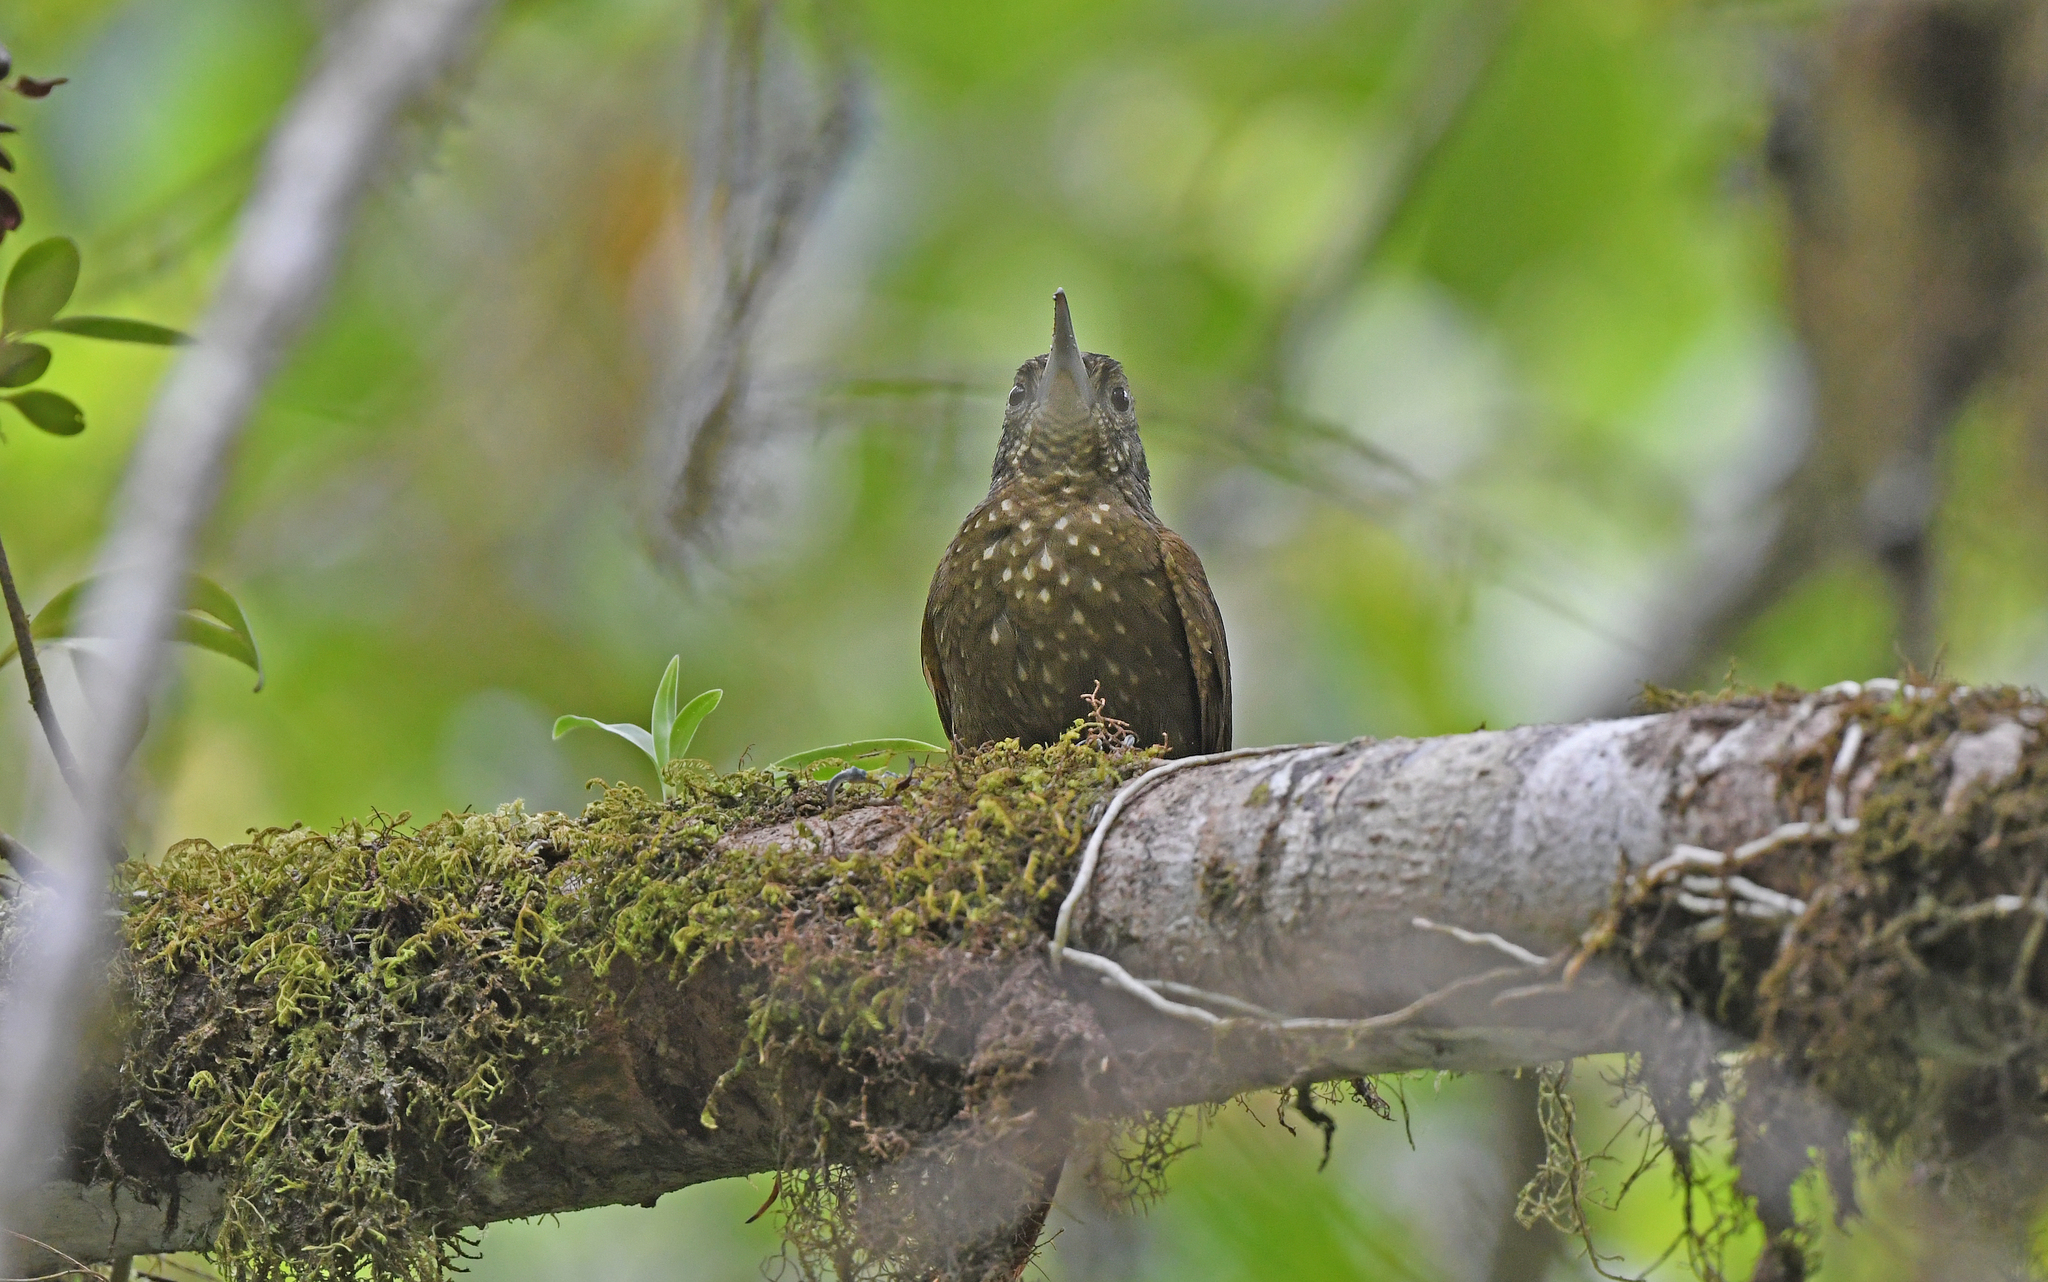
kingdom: Animalia
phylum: Chordata
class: Aves
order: Passeriformes
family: Furnariidae
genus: Xiphorhynchus
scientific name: Xiphorhynchus triangularis
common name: Olive-backed woodcreeper
